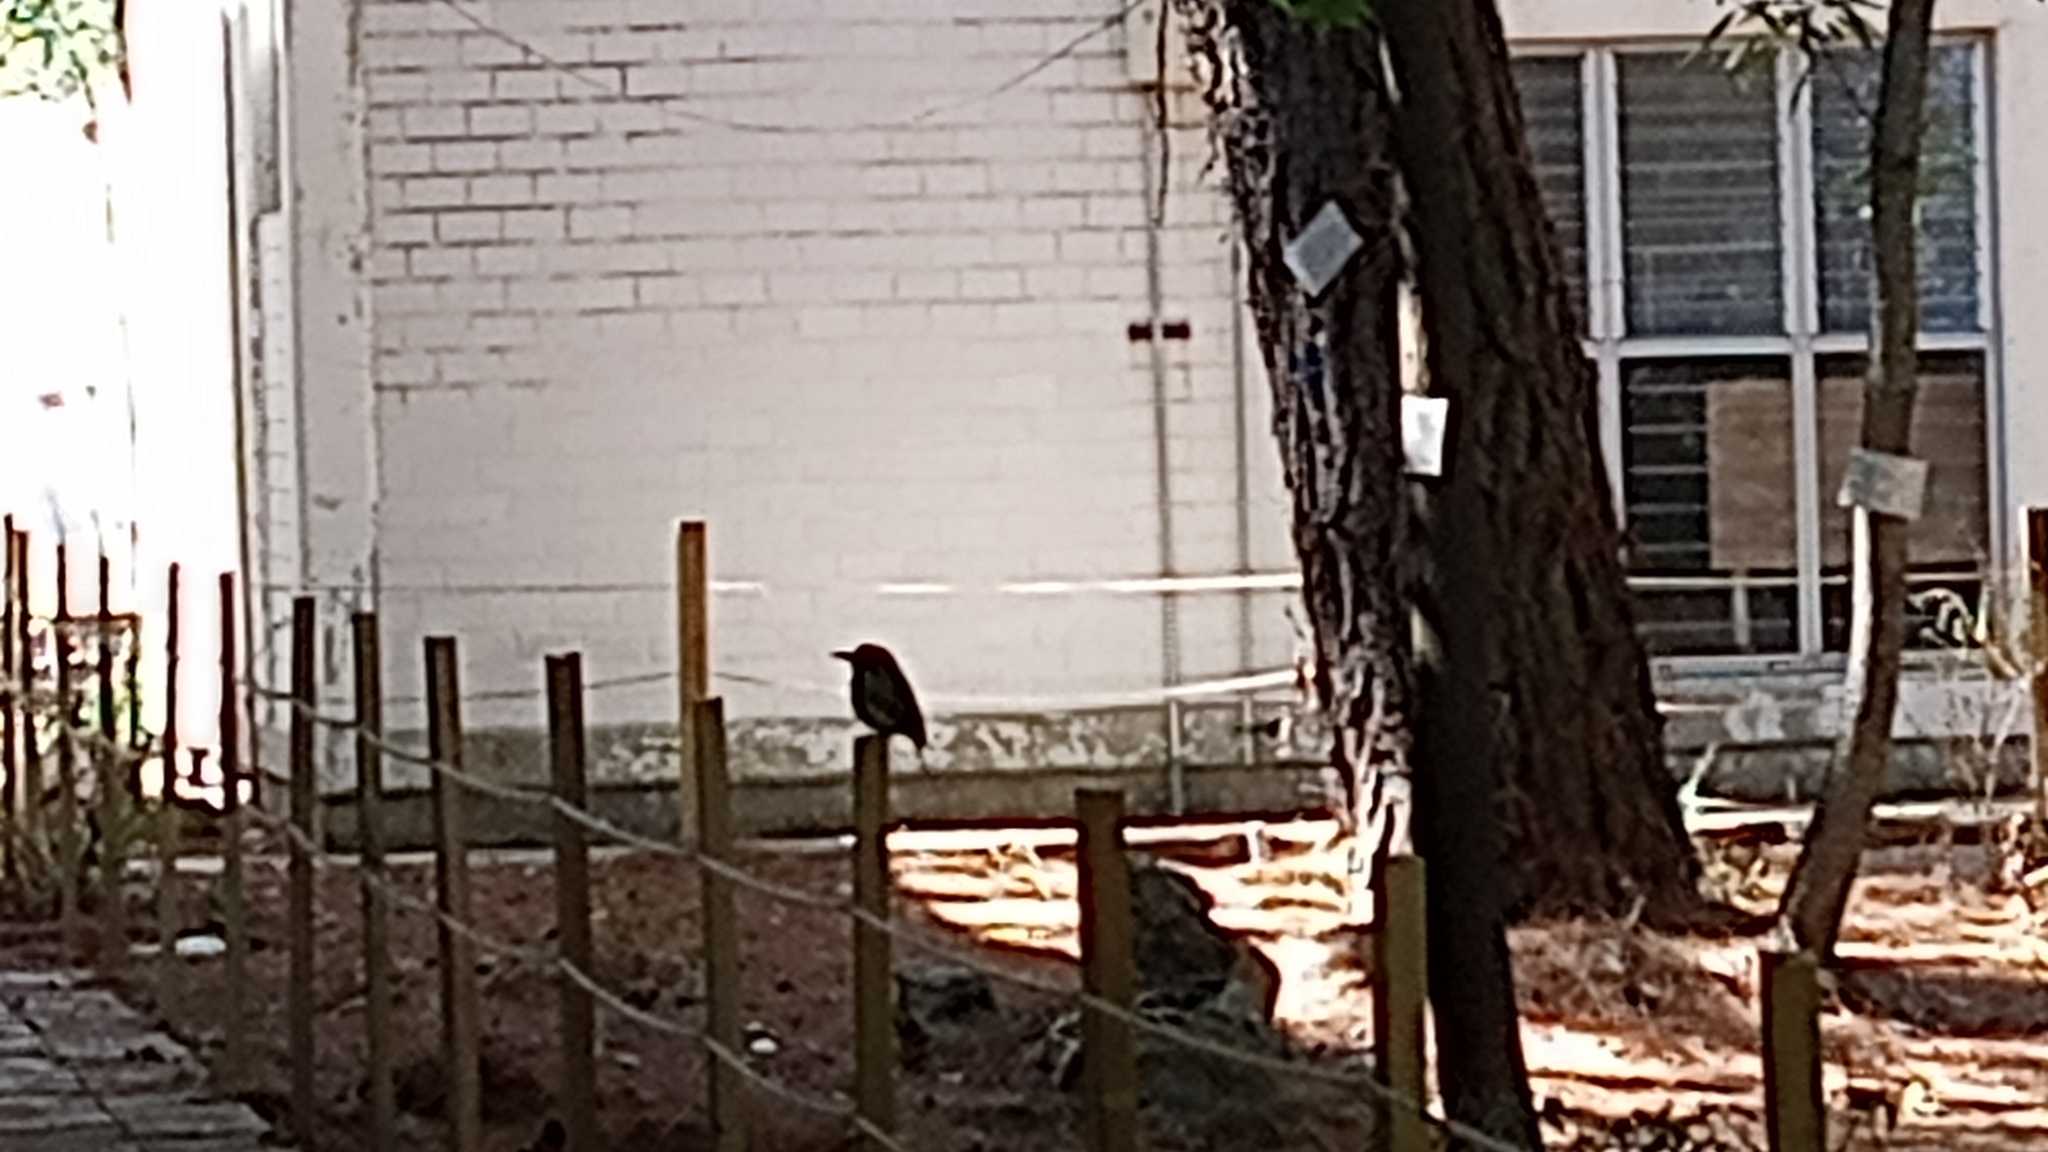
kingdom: Animalia
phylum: Chordata
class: Aves
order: Coraciiformes
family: Momotidae
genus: Momotus
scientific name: Momotus mexicanus
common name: Russet-crowned motmot
